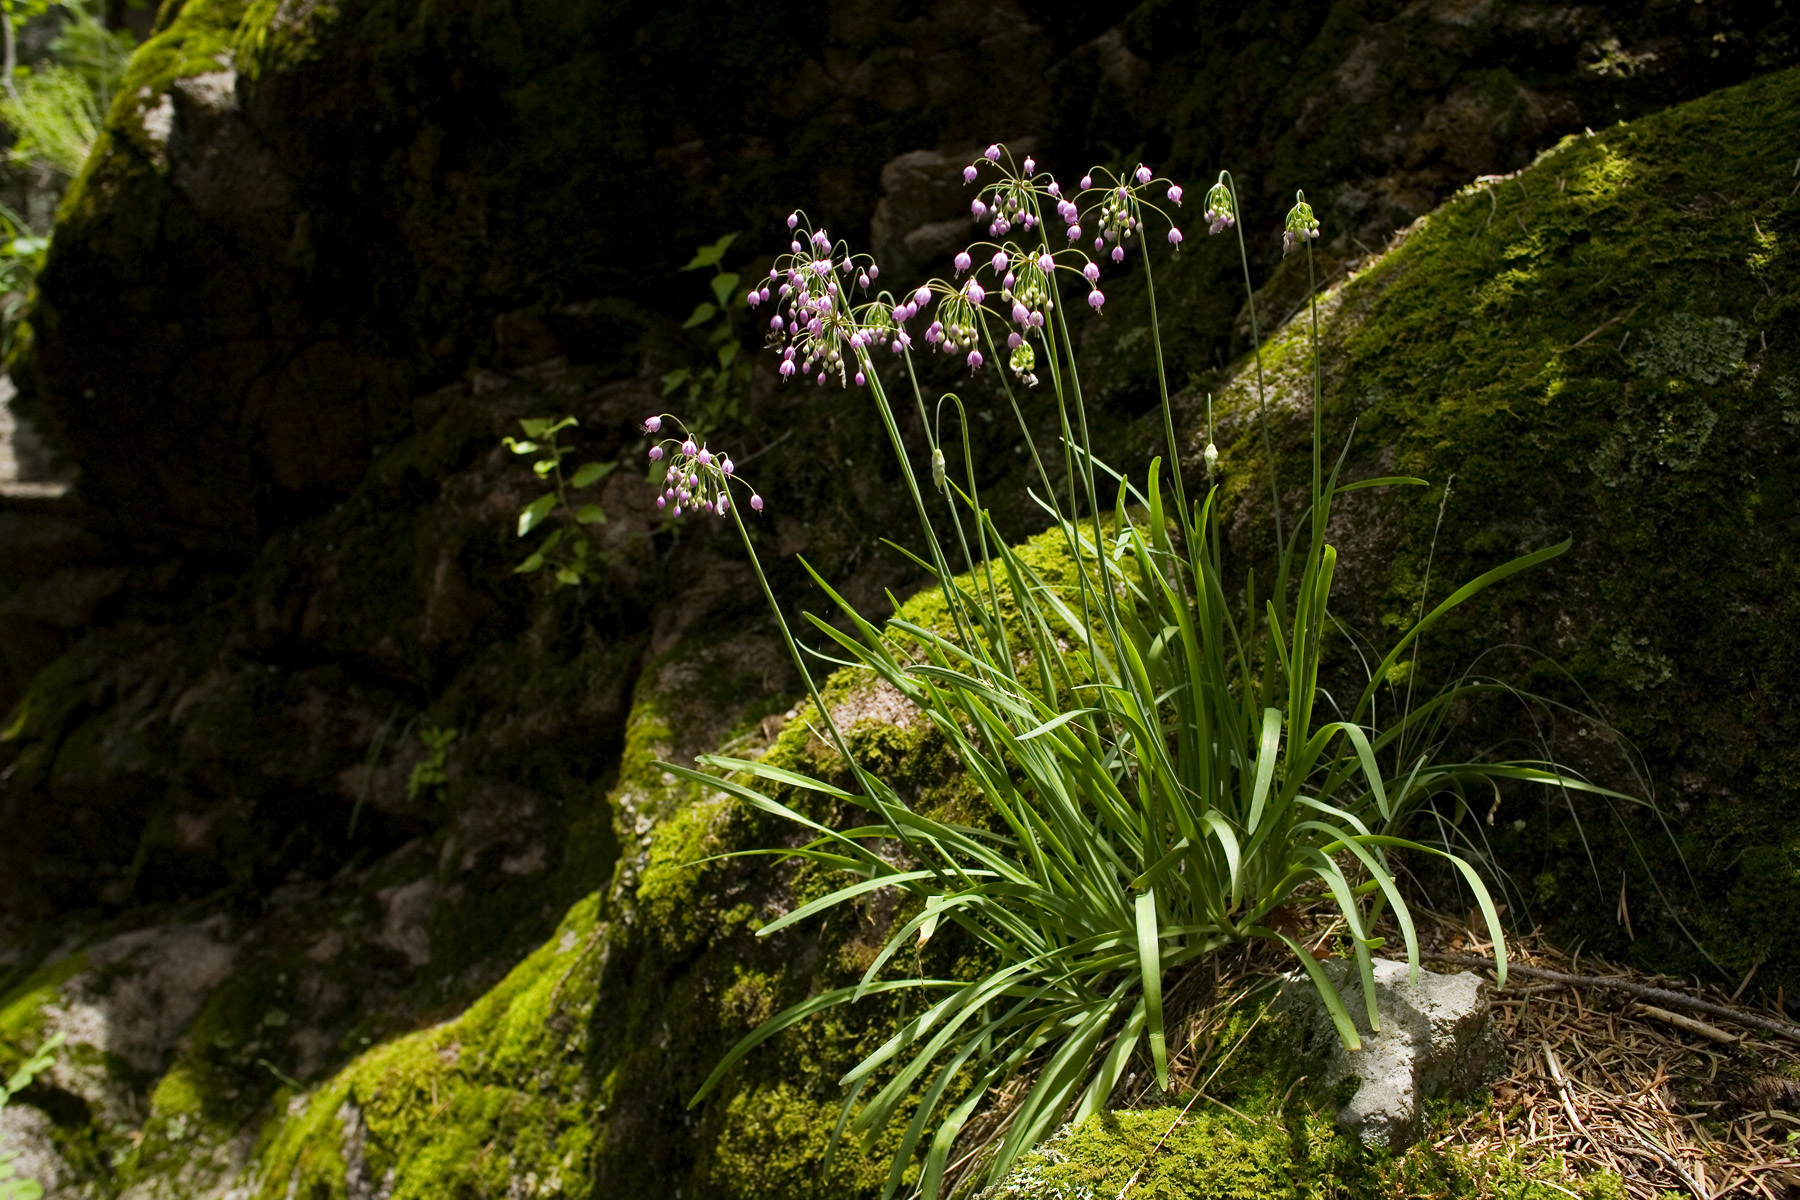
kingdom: Plantae
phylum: Tracheophyta
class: Liliopsida
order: Asparagales
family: Amaryllidaceae
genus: Allium
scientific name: Allium cernuum
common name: Nodding onion
